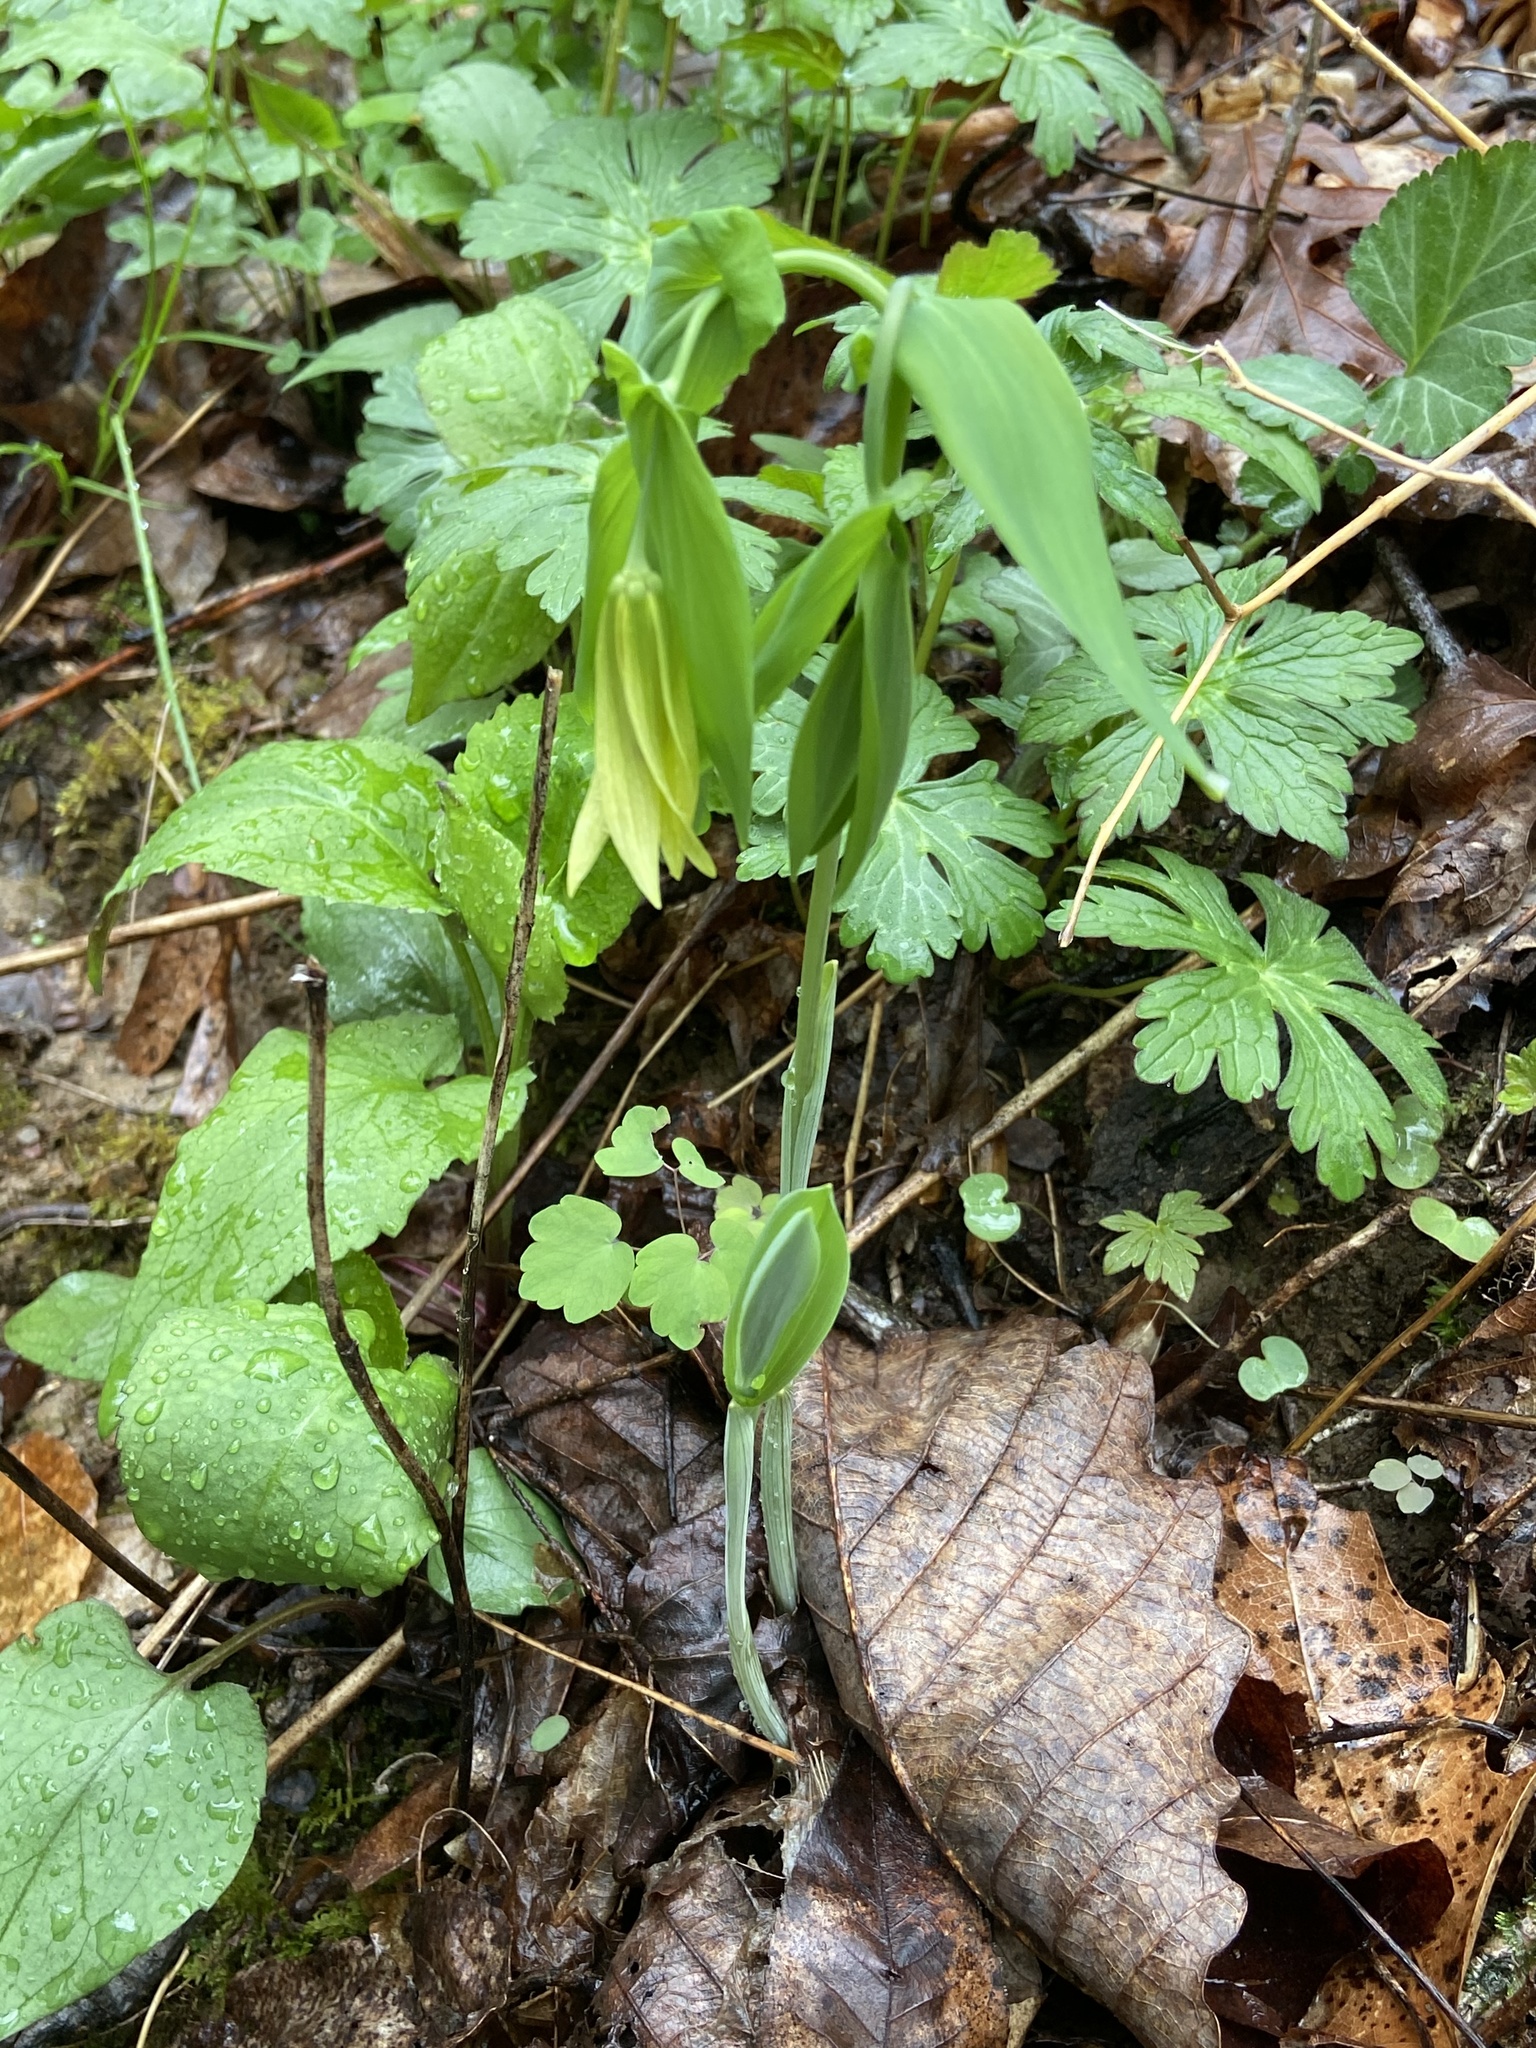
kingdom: Plantae
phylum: Tracheophyta
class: Liliopsida
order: Liliales
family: Colchicaceae
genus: Uvularia
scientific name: Uvularia grandiflora
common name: Bellwort
